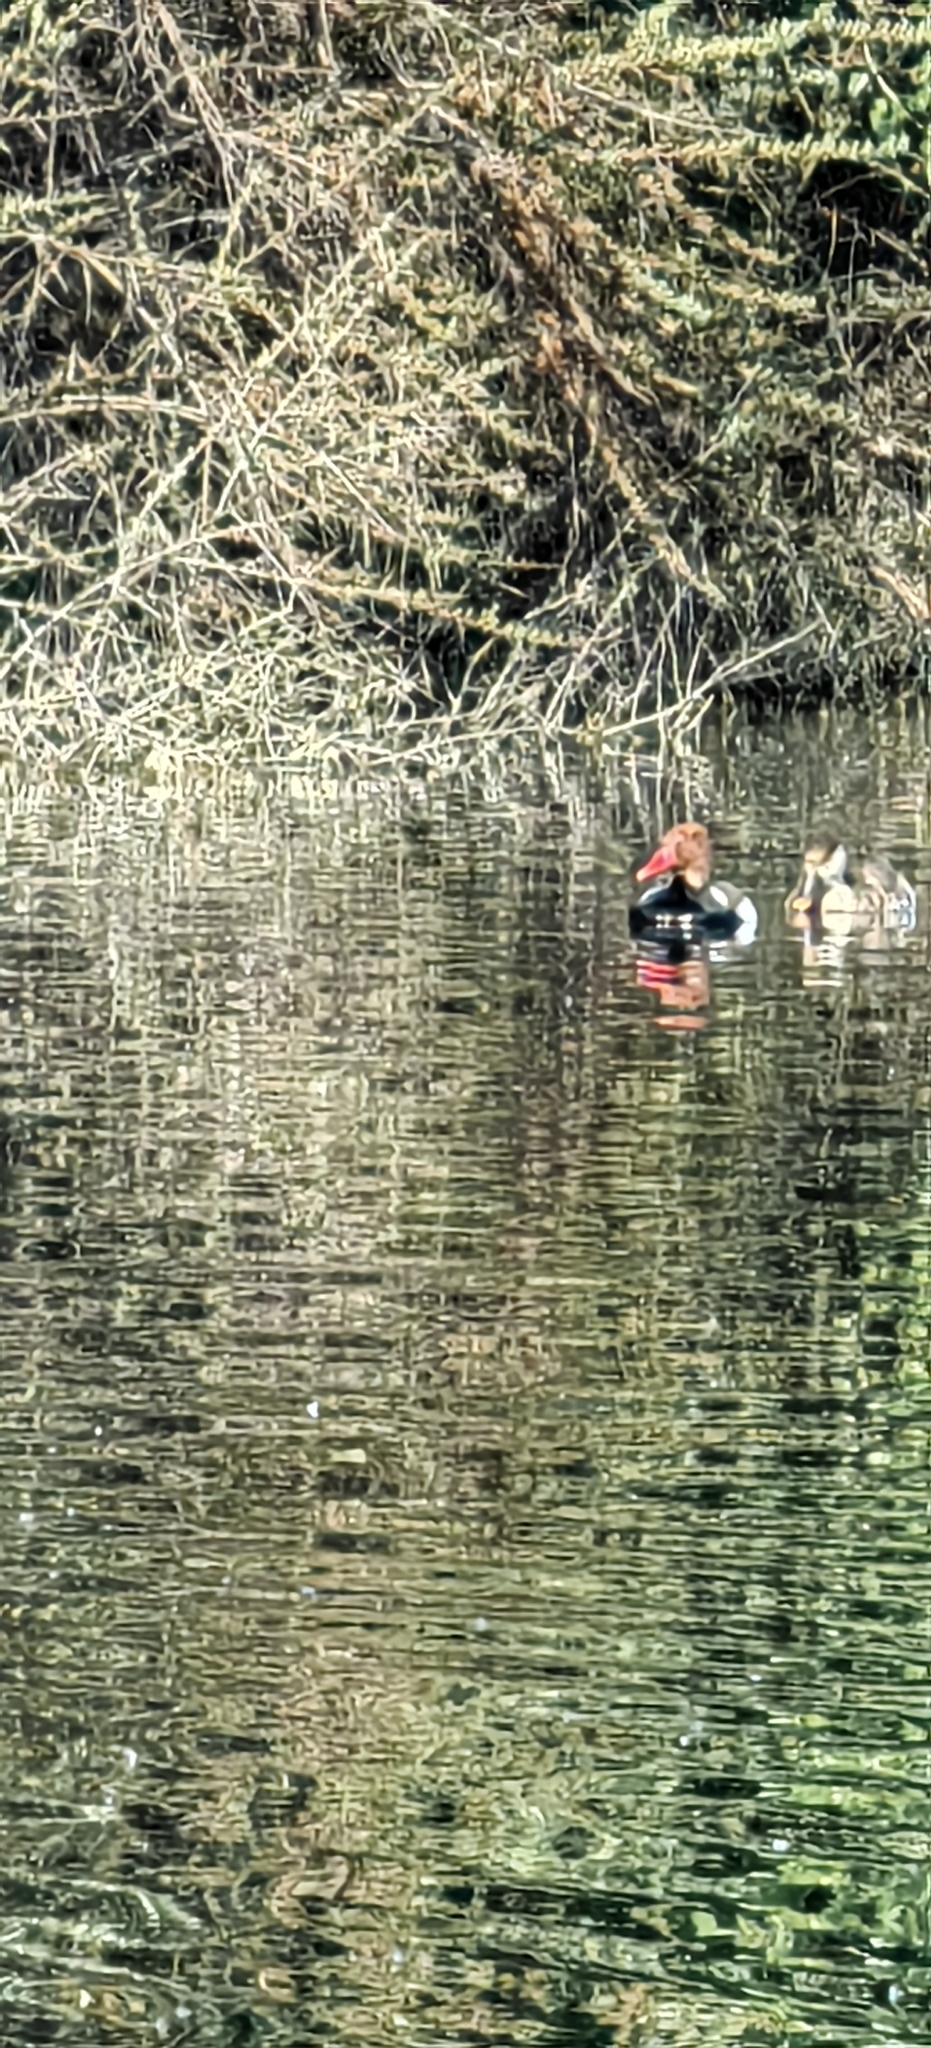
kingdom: Animalia
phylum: Chordata
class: Aves
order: Anseriformes
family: Anatidae
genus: Netta
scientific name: Netta rufina
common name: Red-crested pochard
